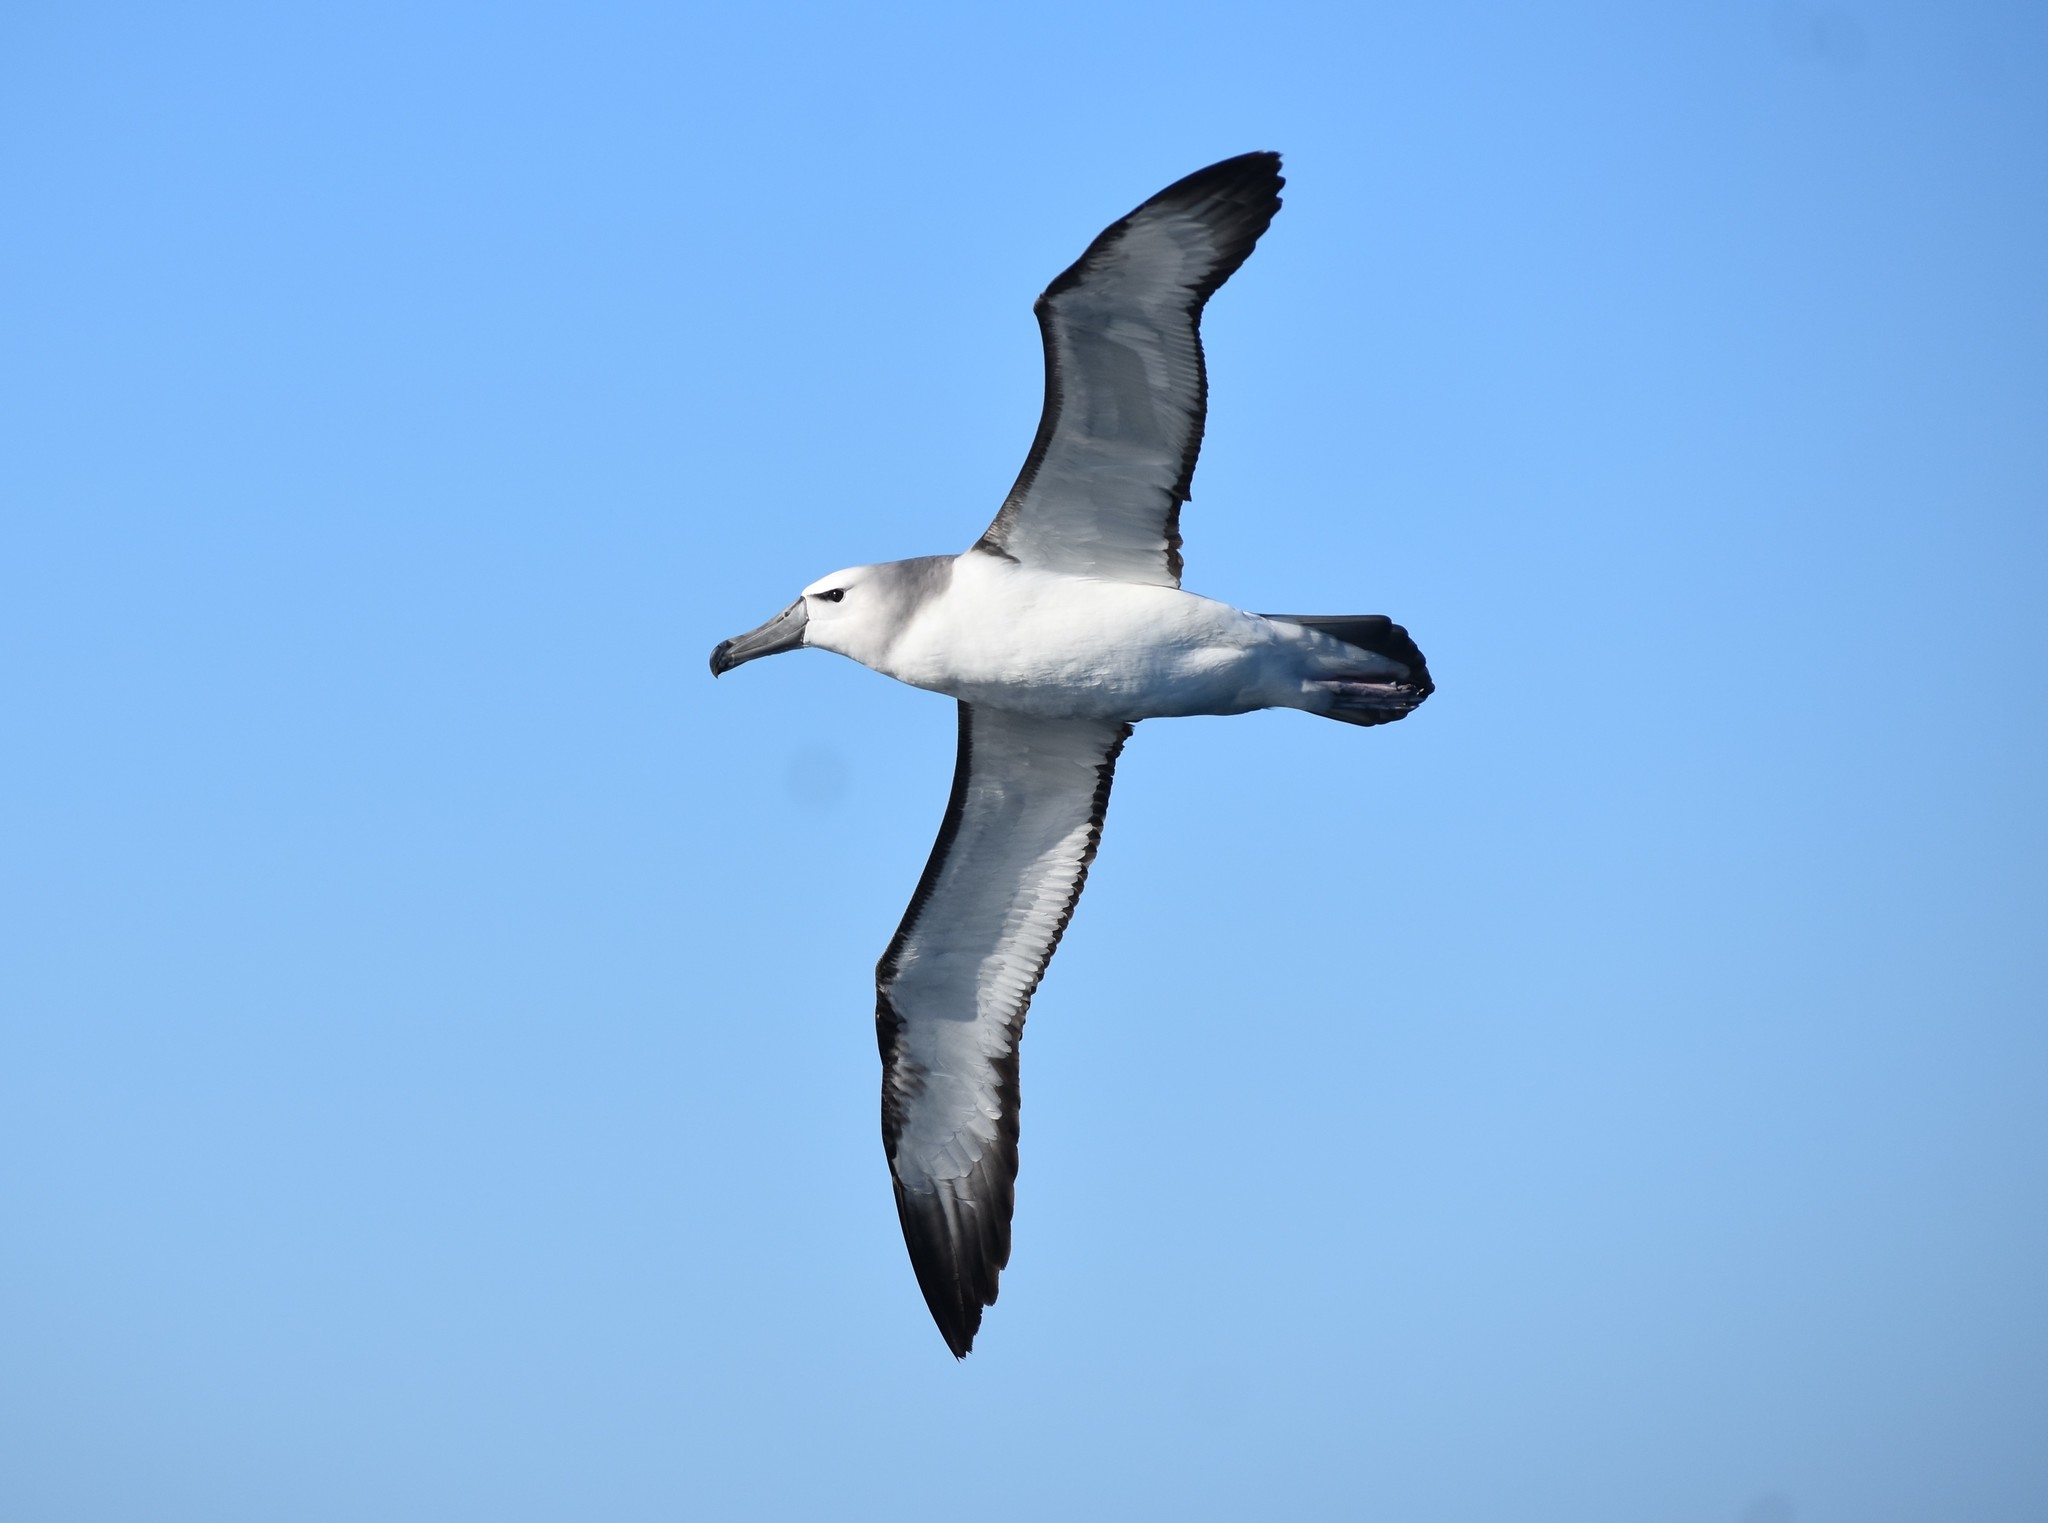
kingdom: Animalia
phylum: Chordata
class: Aves
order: Procellariiformes
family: Diomedeidae
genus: Thalassarche
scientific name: Thalassarche cauta
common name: Shy albatross
